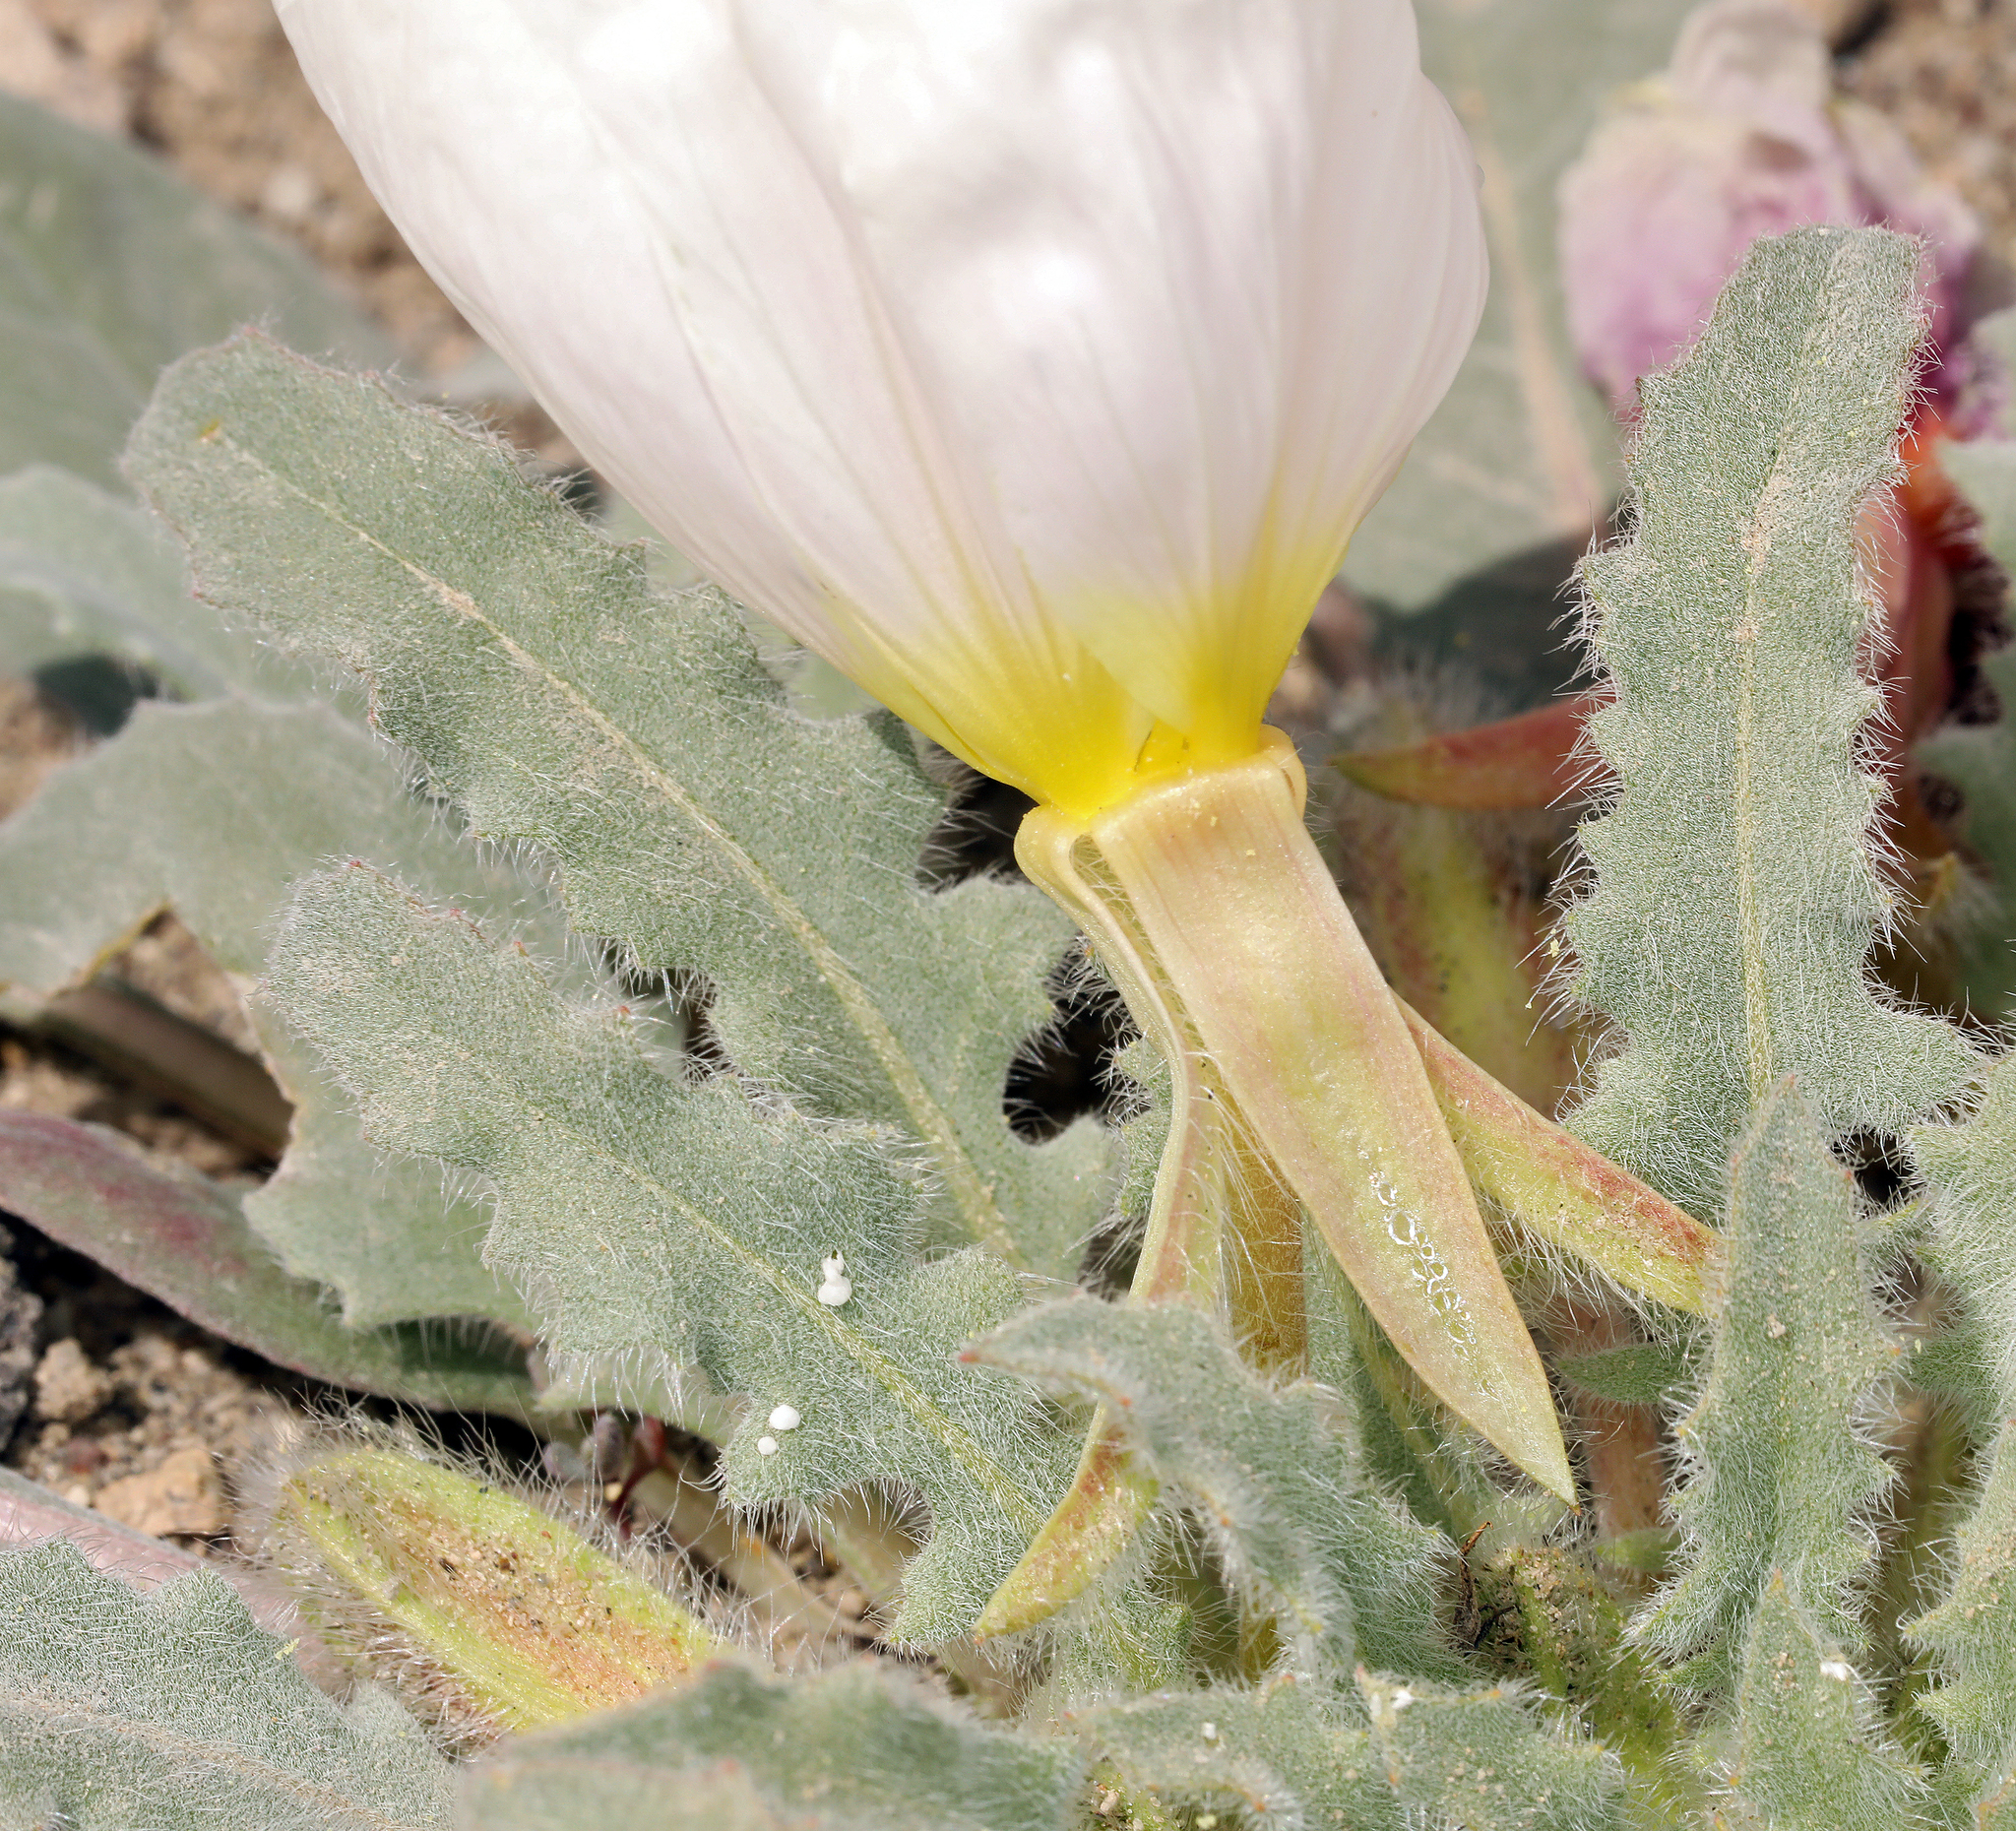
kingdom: Plantae
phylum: Tracheophyta
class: Magnoliopsida
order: Myrtales
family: Onagraceae
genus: Oenothera
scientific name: Oenothera deltoides
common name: Basket evening-primrose
